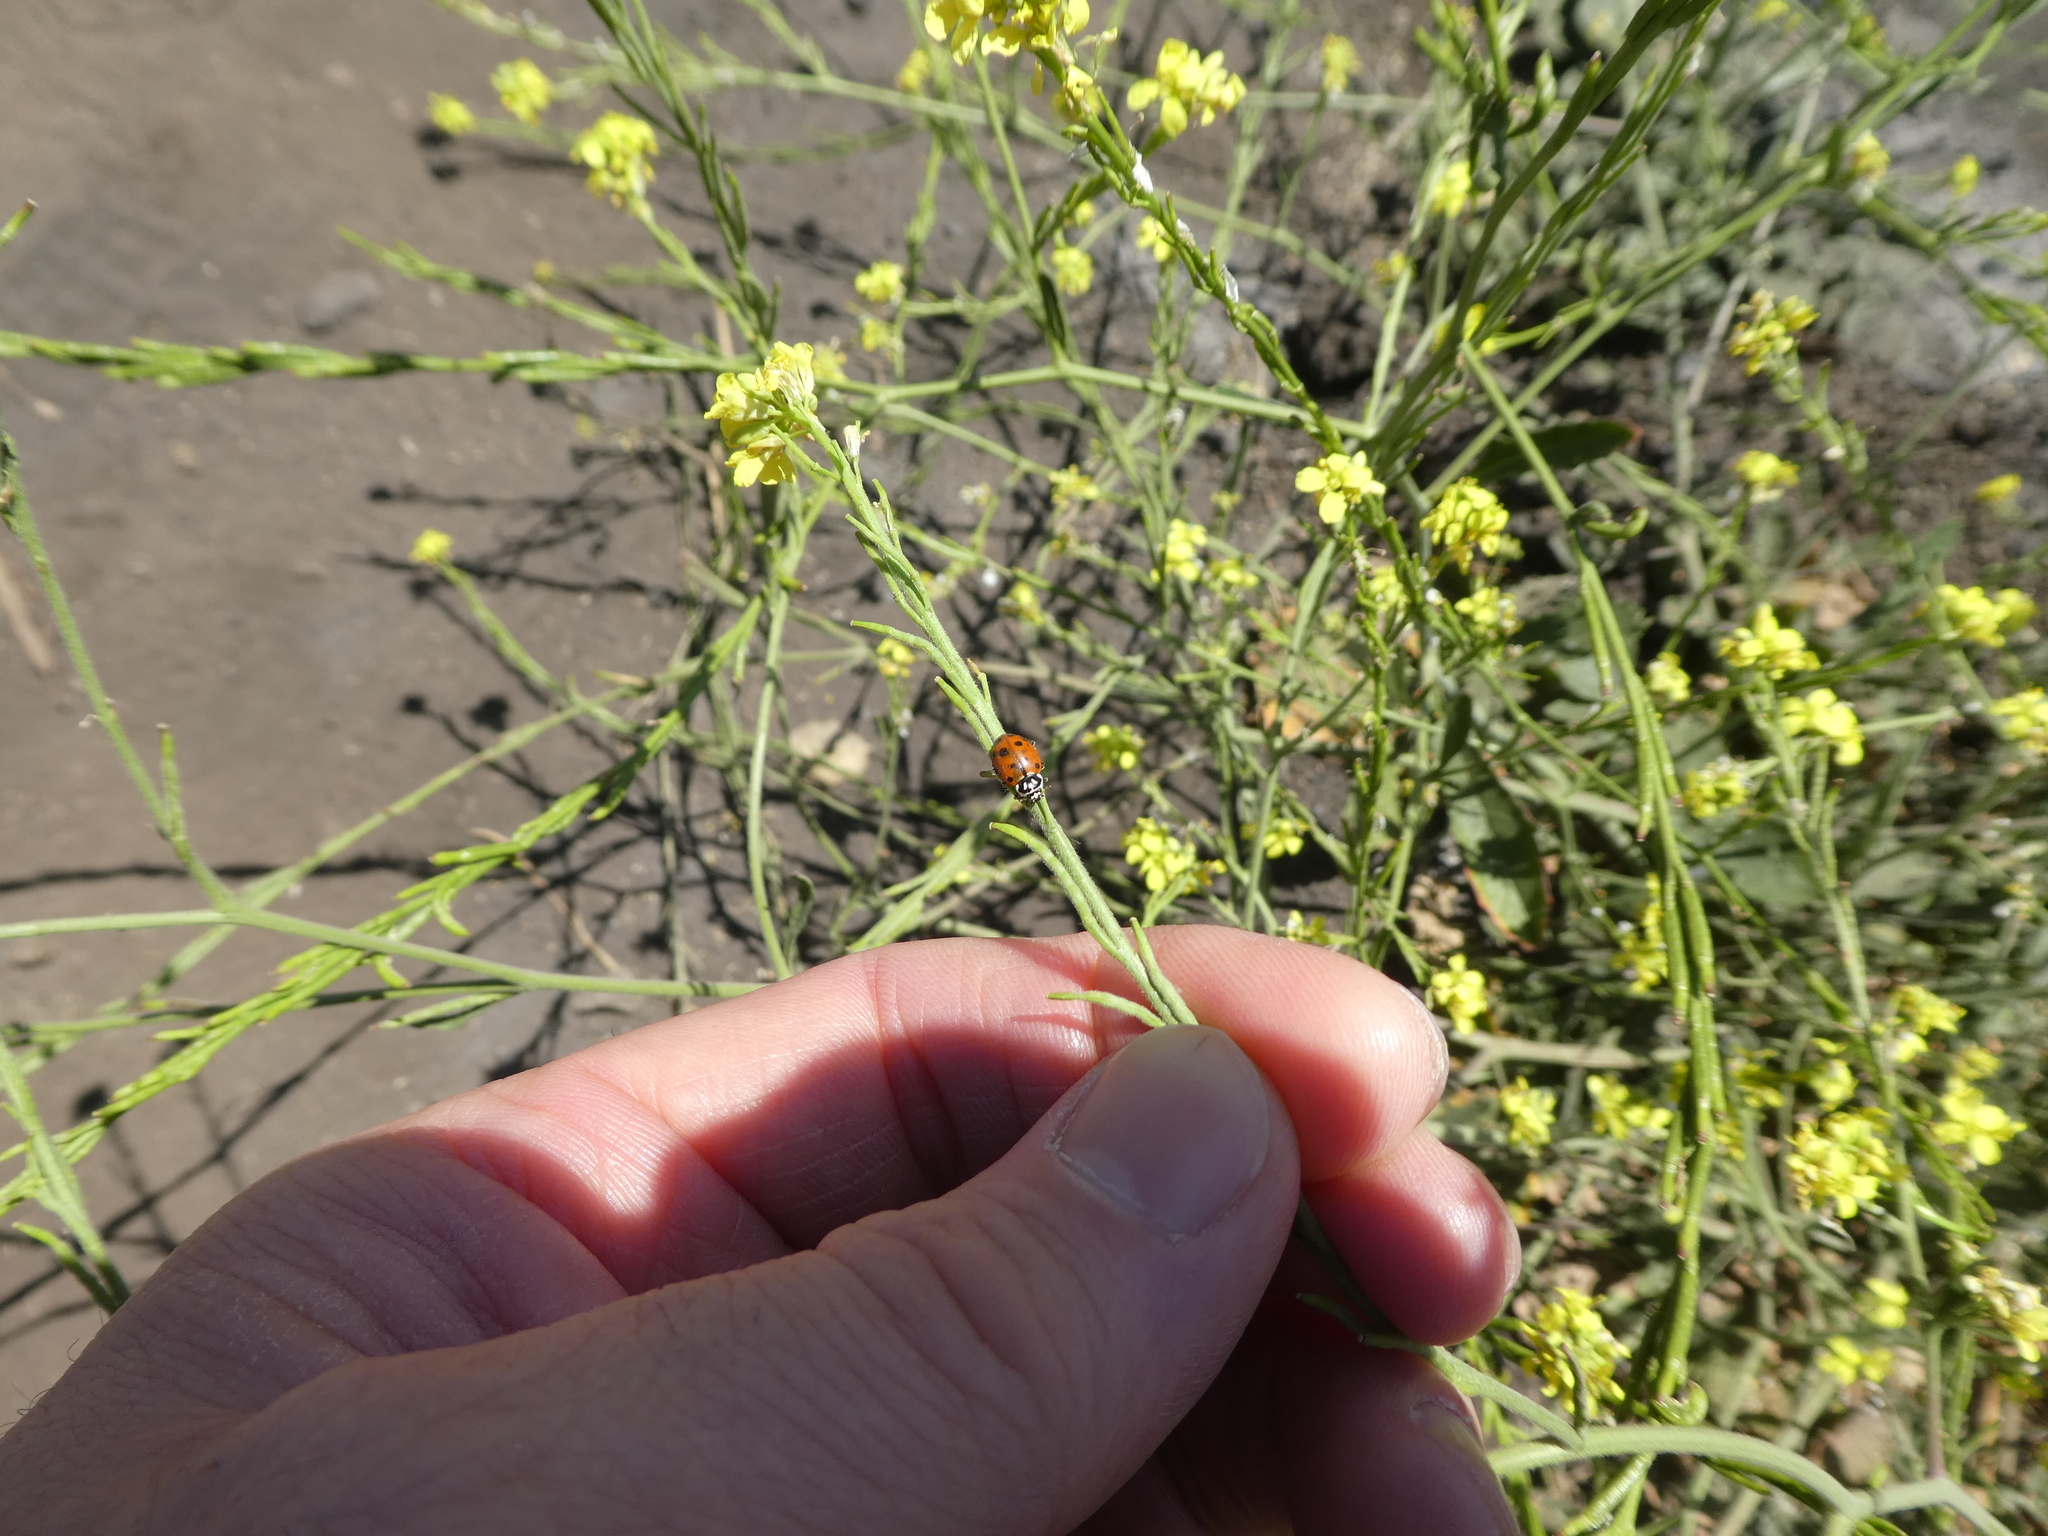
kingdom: Animalia
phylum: Arthropoda
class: Insecta
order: Coleoptera
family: Coccinellidae
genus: Hippodamia
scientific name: Hippodamia convergens
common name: Convergent lady beetle
